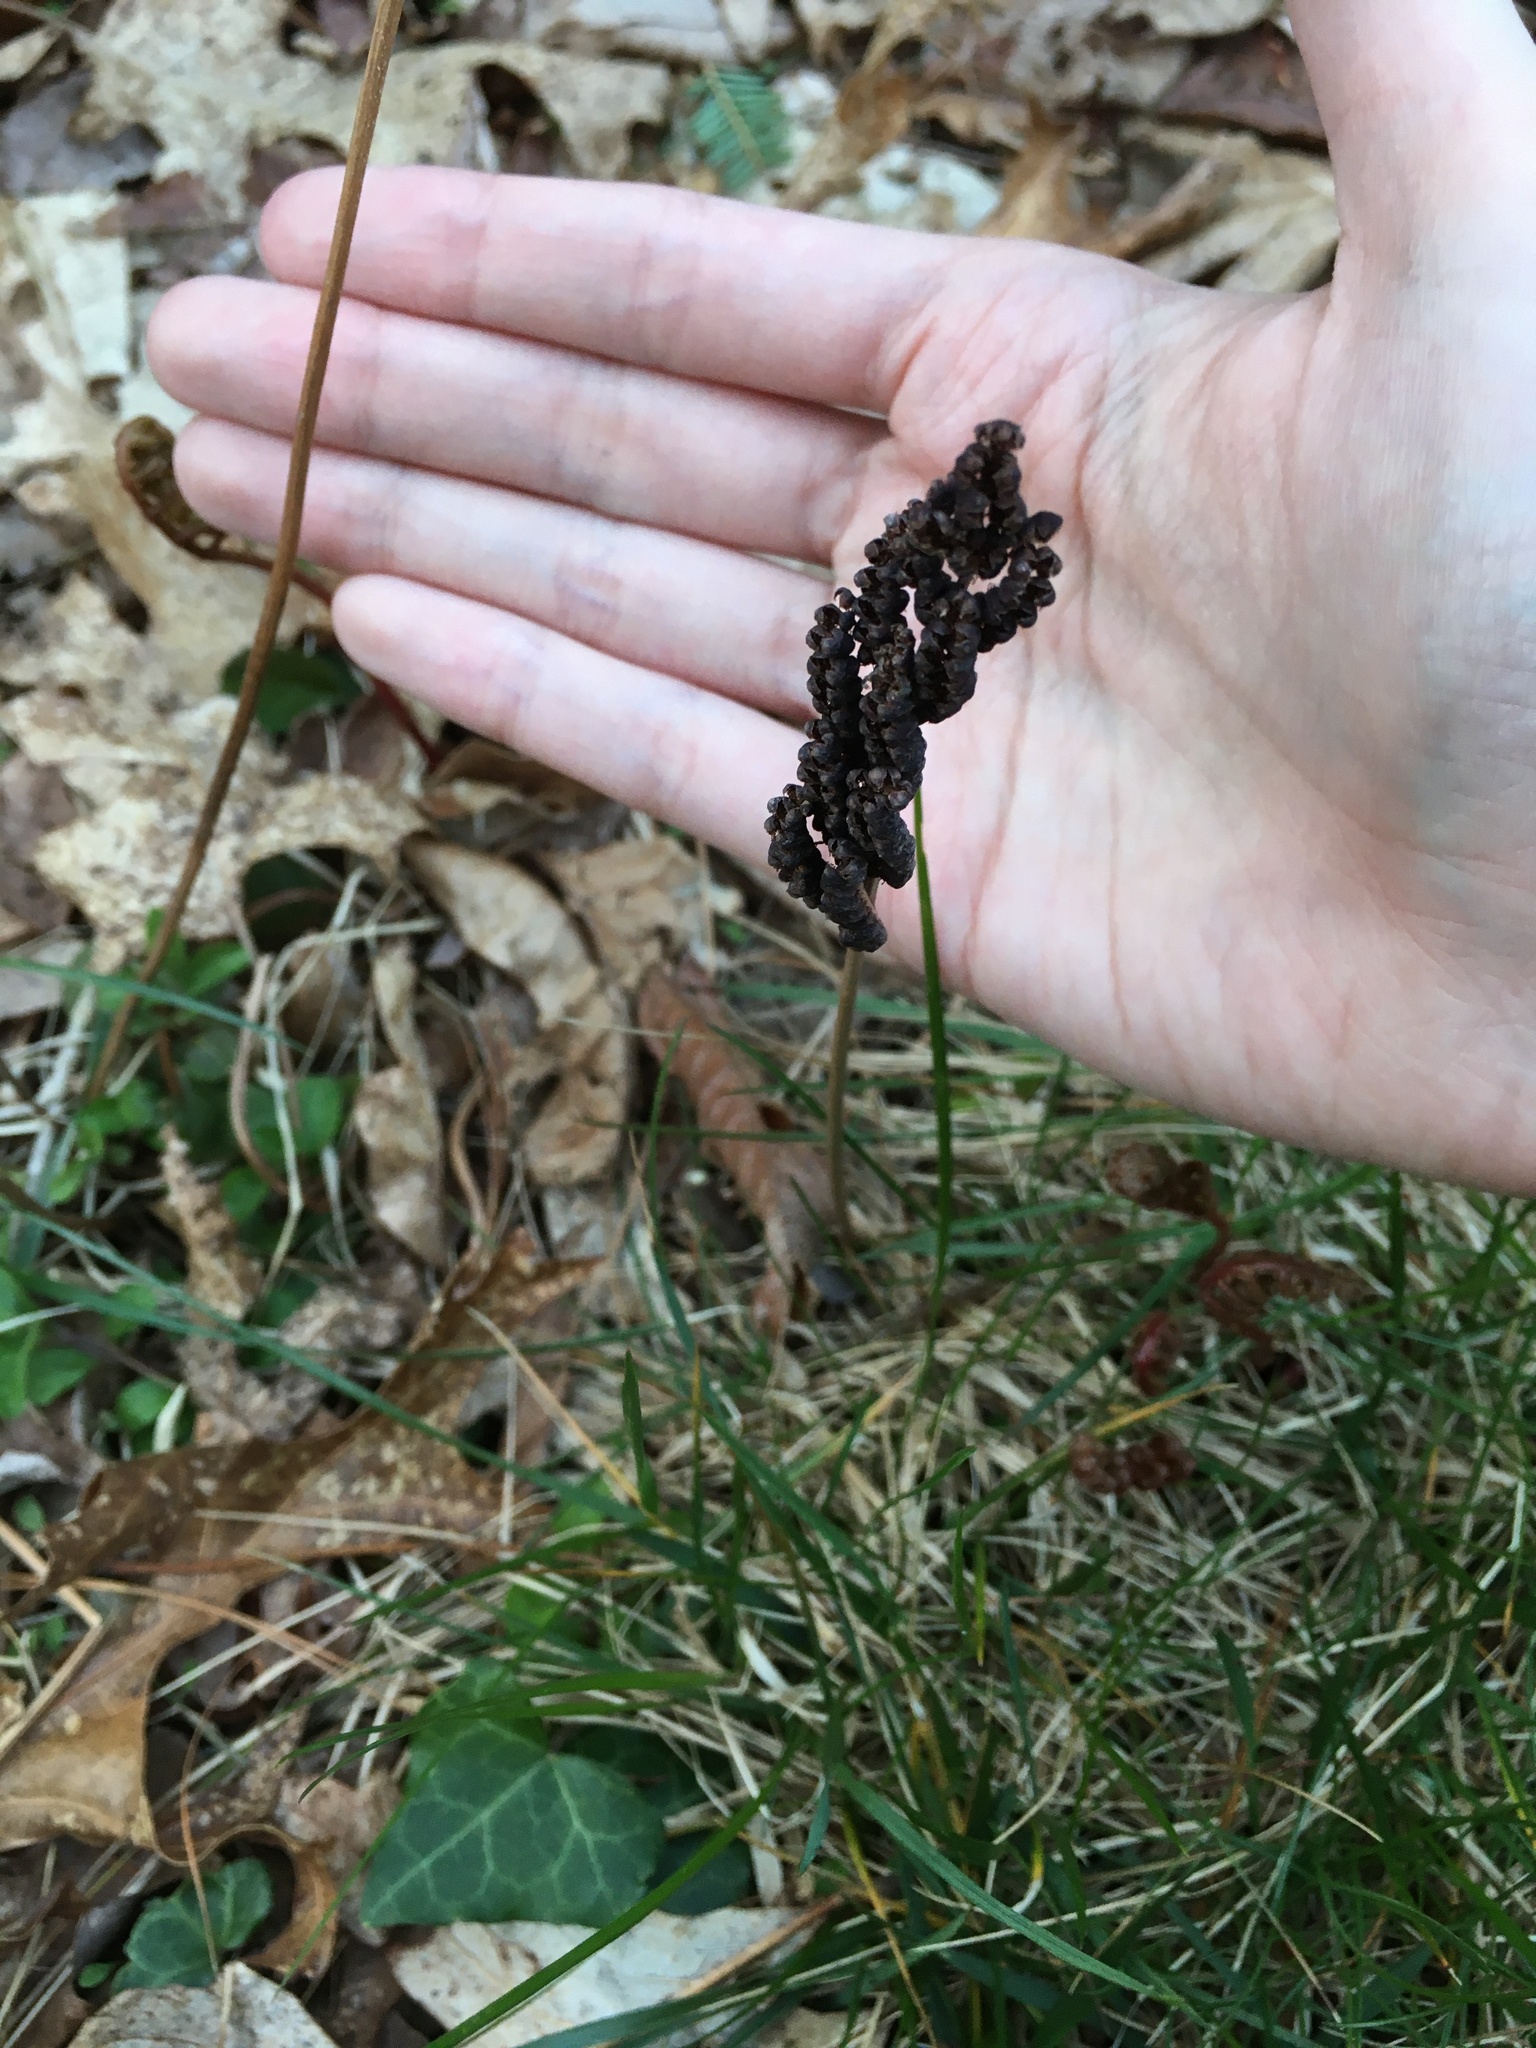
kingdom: Plantae
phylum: Tracheophyta
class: Polypodiopsida
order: Polypodiales
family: Onocleaceae
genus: Onoclea
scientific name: Onoclea sensibilis
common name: Sensitive fern
